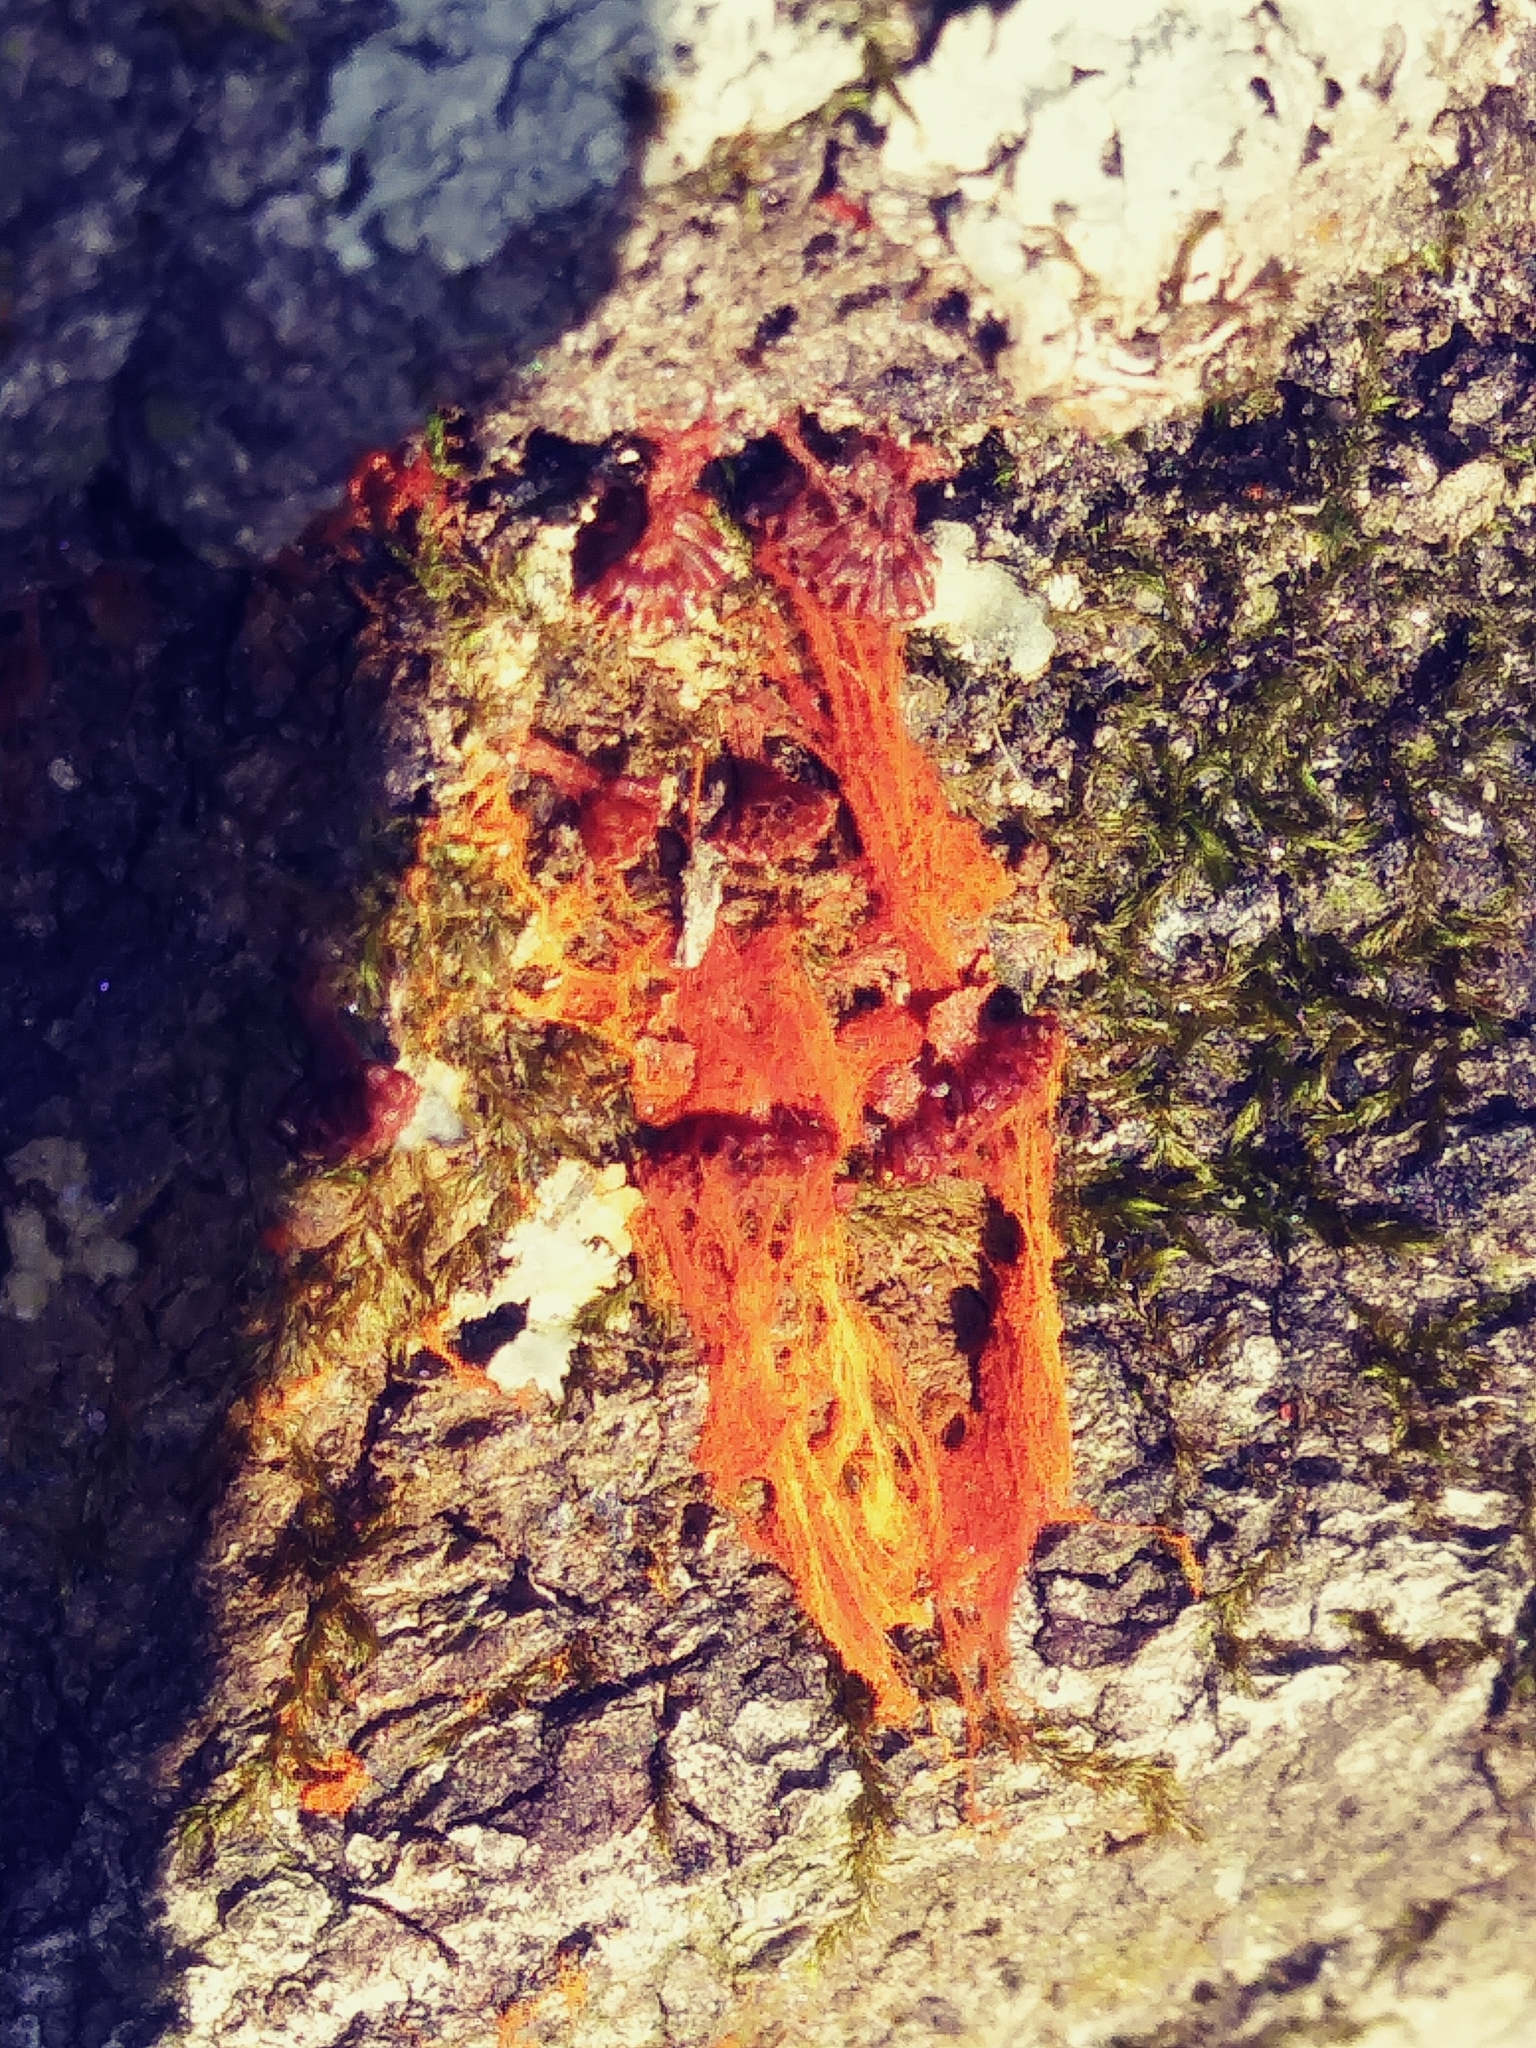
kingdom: Protozoa
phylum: Mycetozoa
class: Myxomycetes
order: Trichiales
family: Trichiaceae
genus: Metatrichia
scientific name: Metatrichia vesparia
